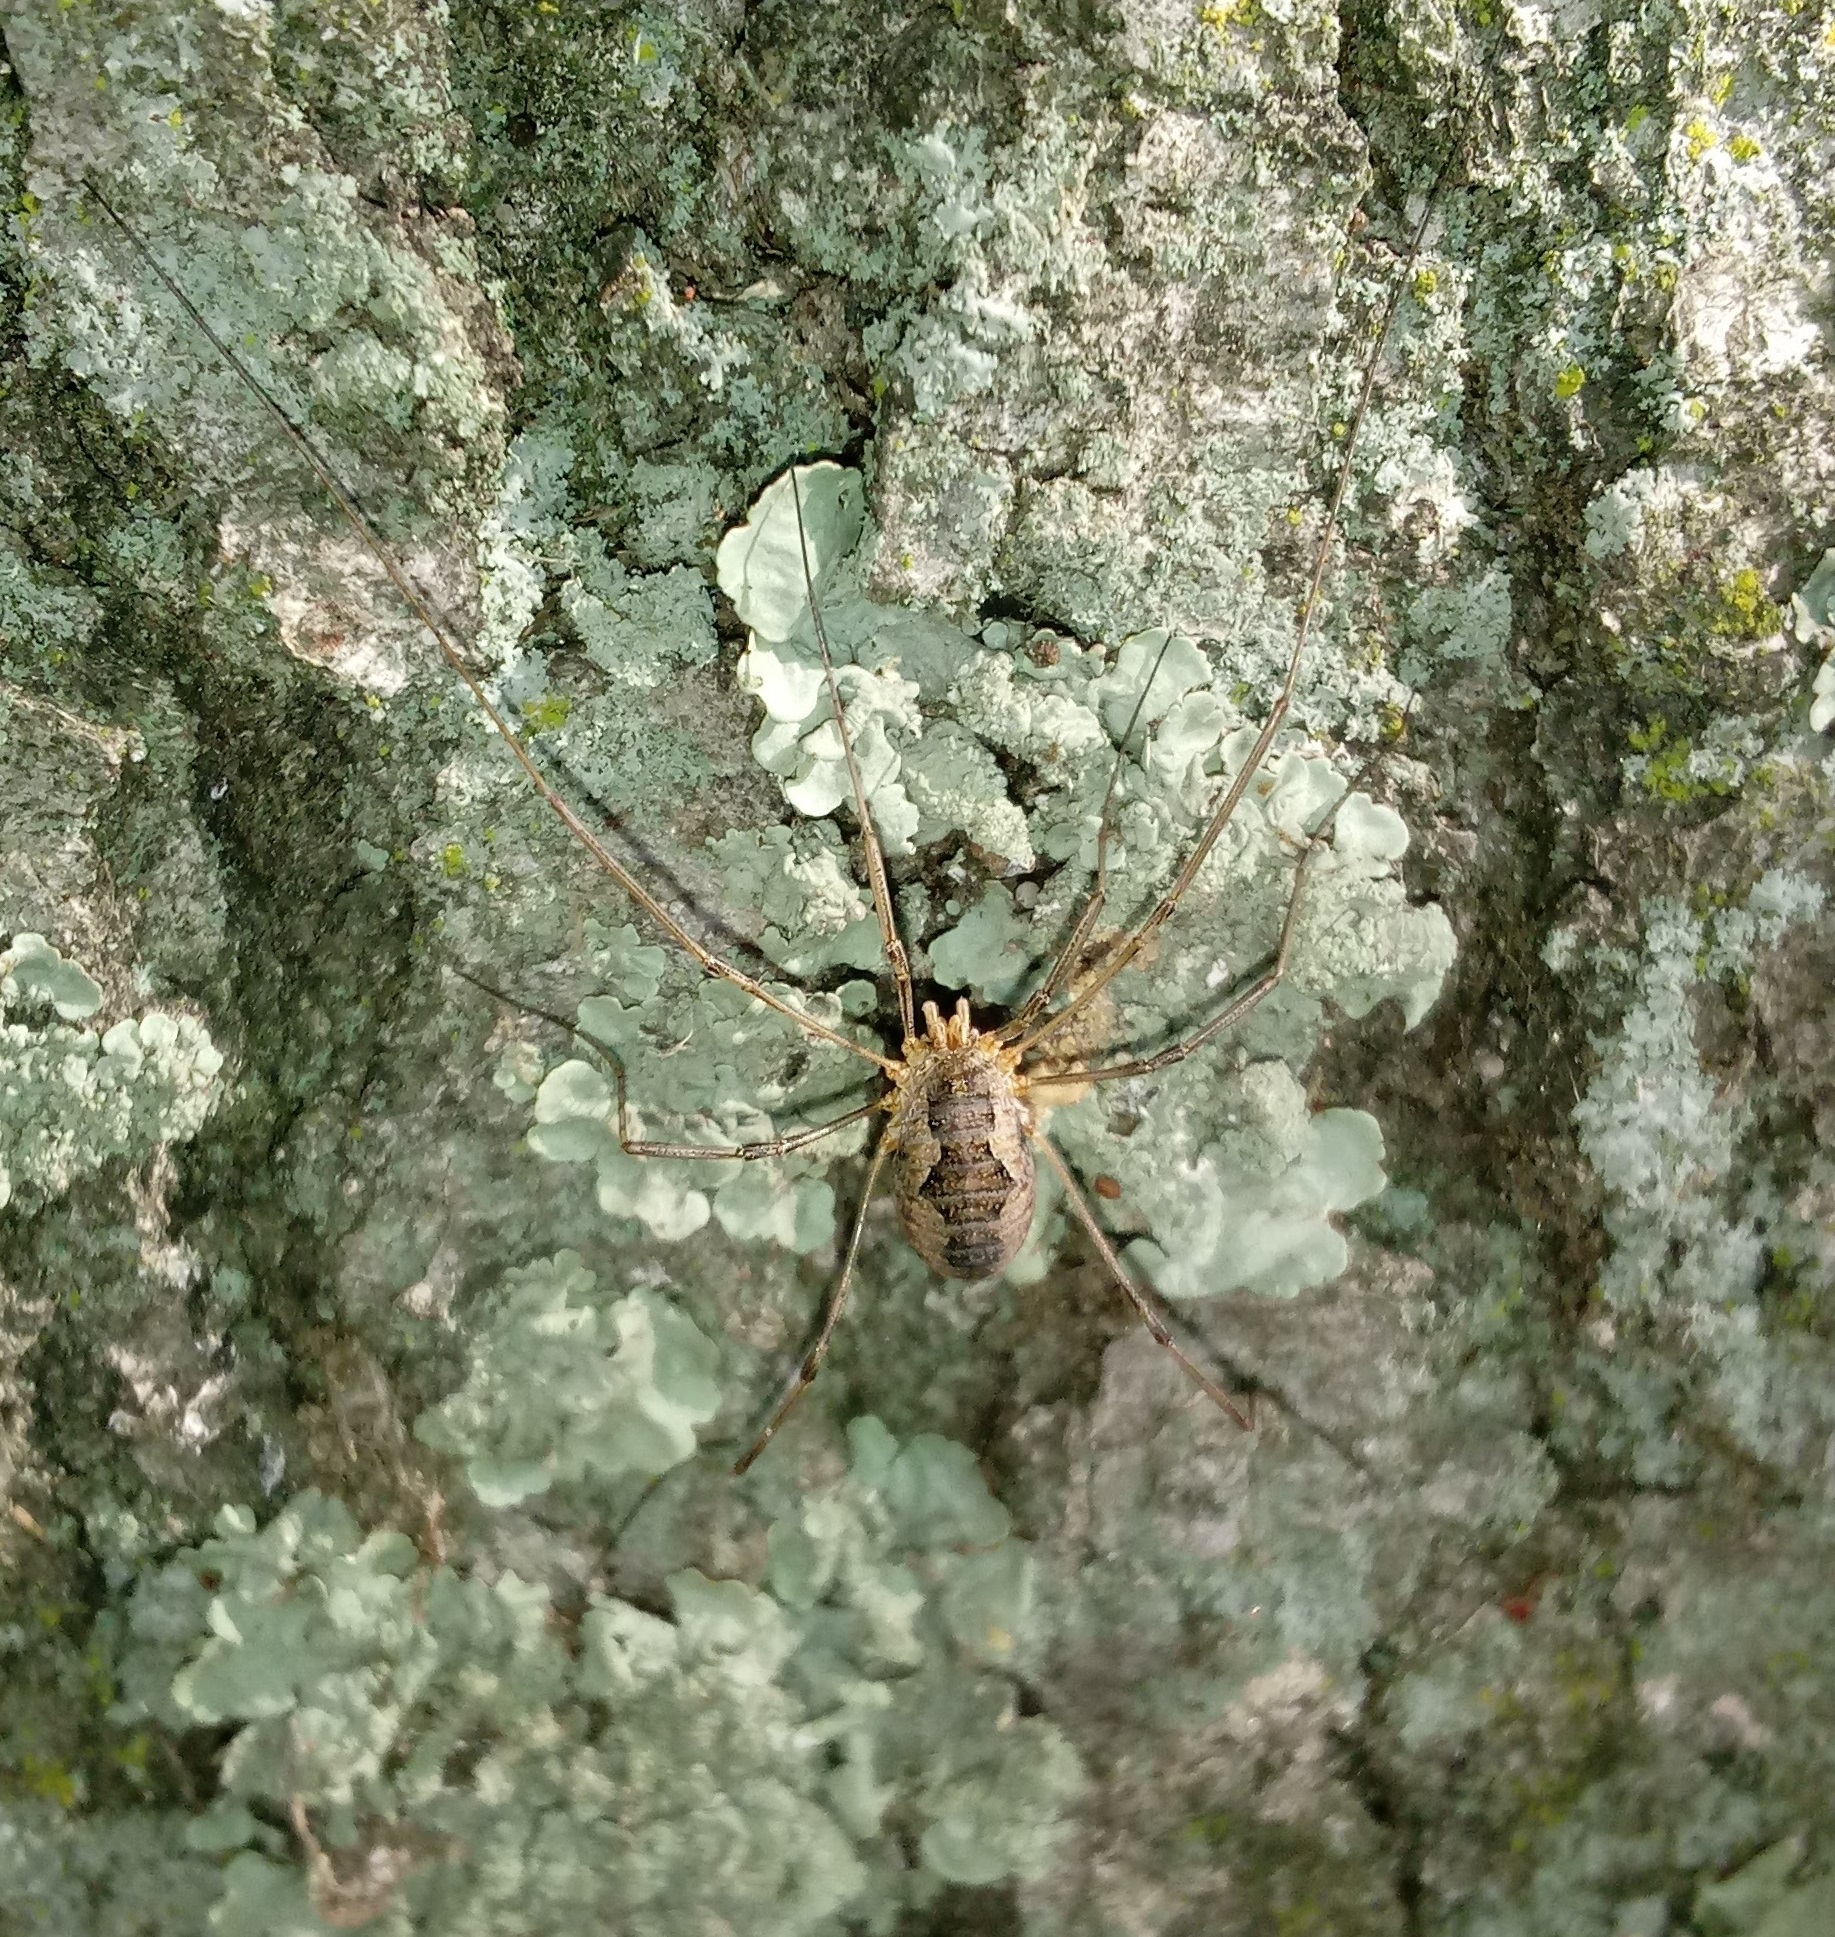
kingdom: Animalia
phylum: Arthropoda
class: Arachnida
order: Opiliones
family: Phalangiidae
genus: Phalangium
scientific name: Phalangium opilio
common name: Daddy longleg
